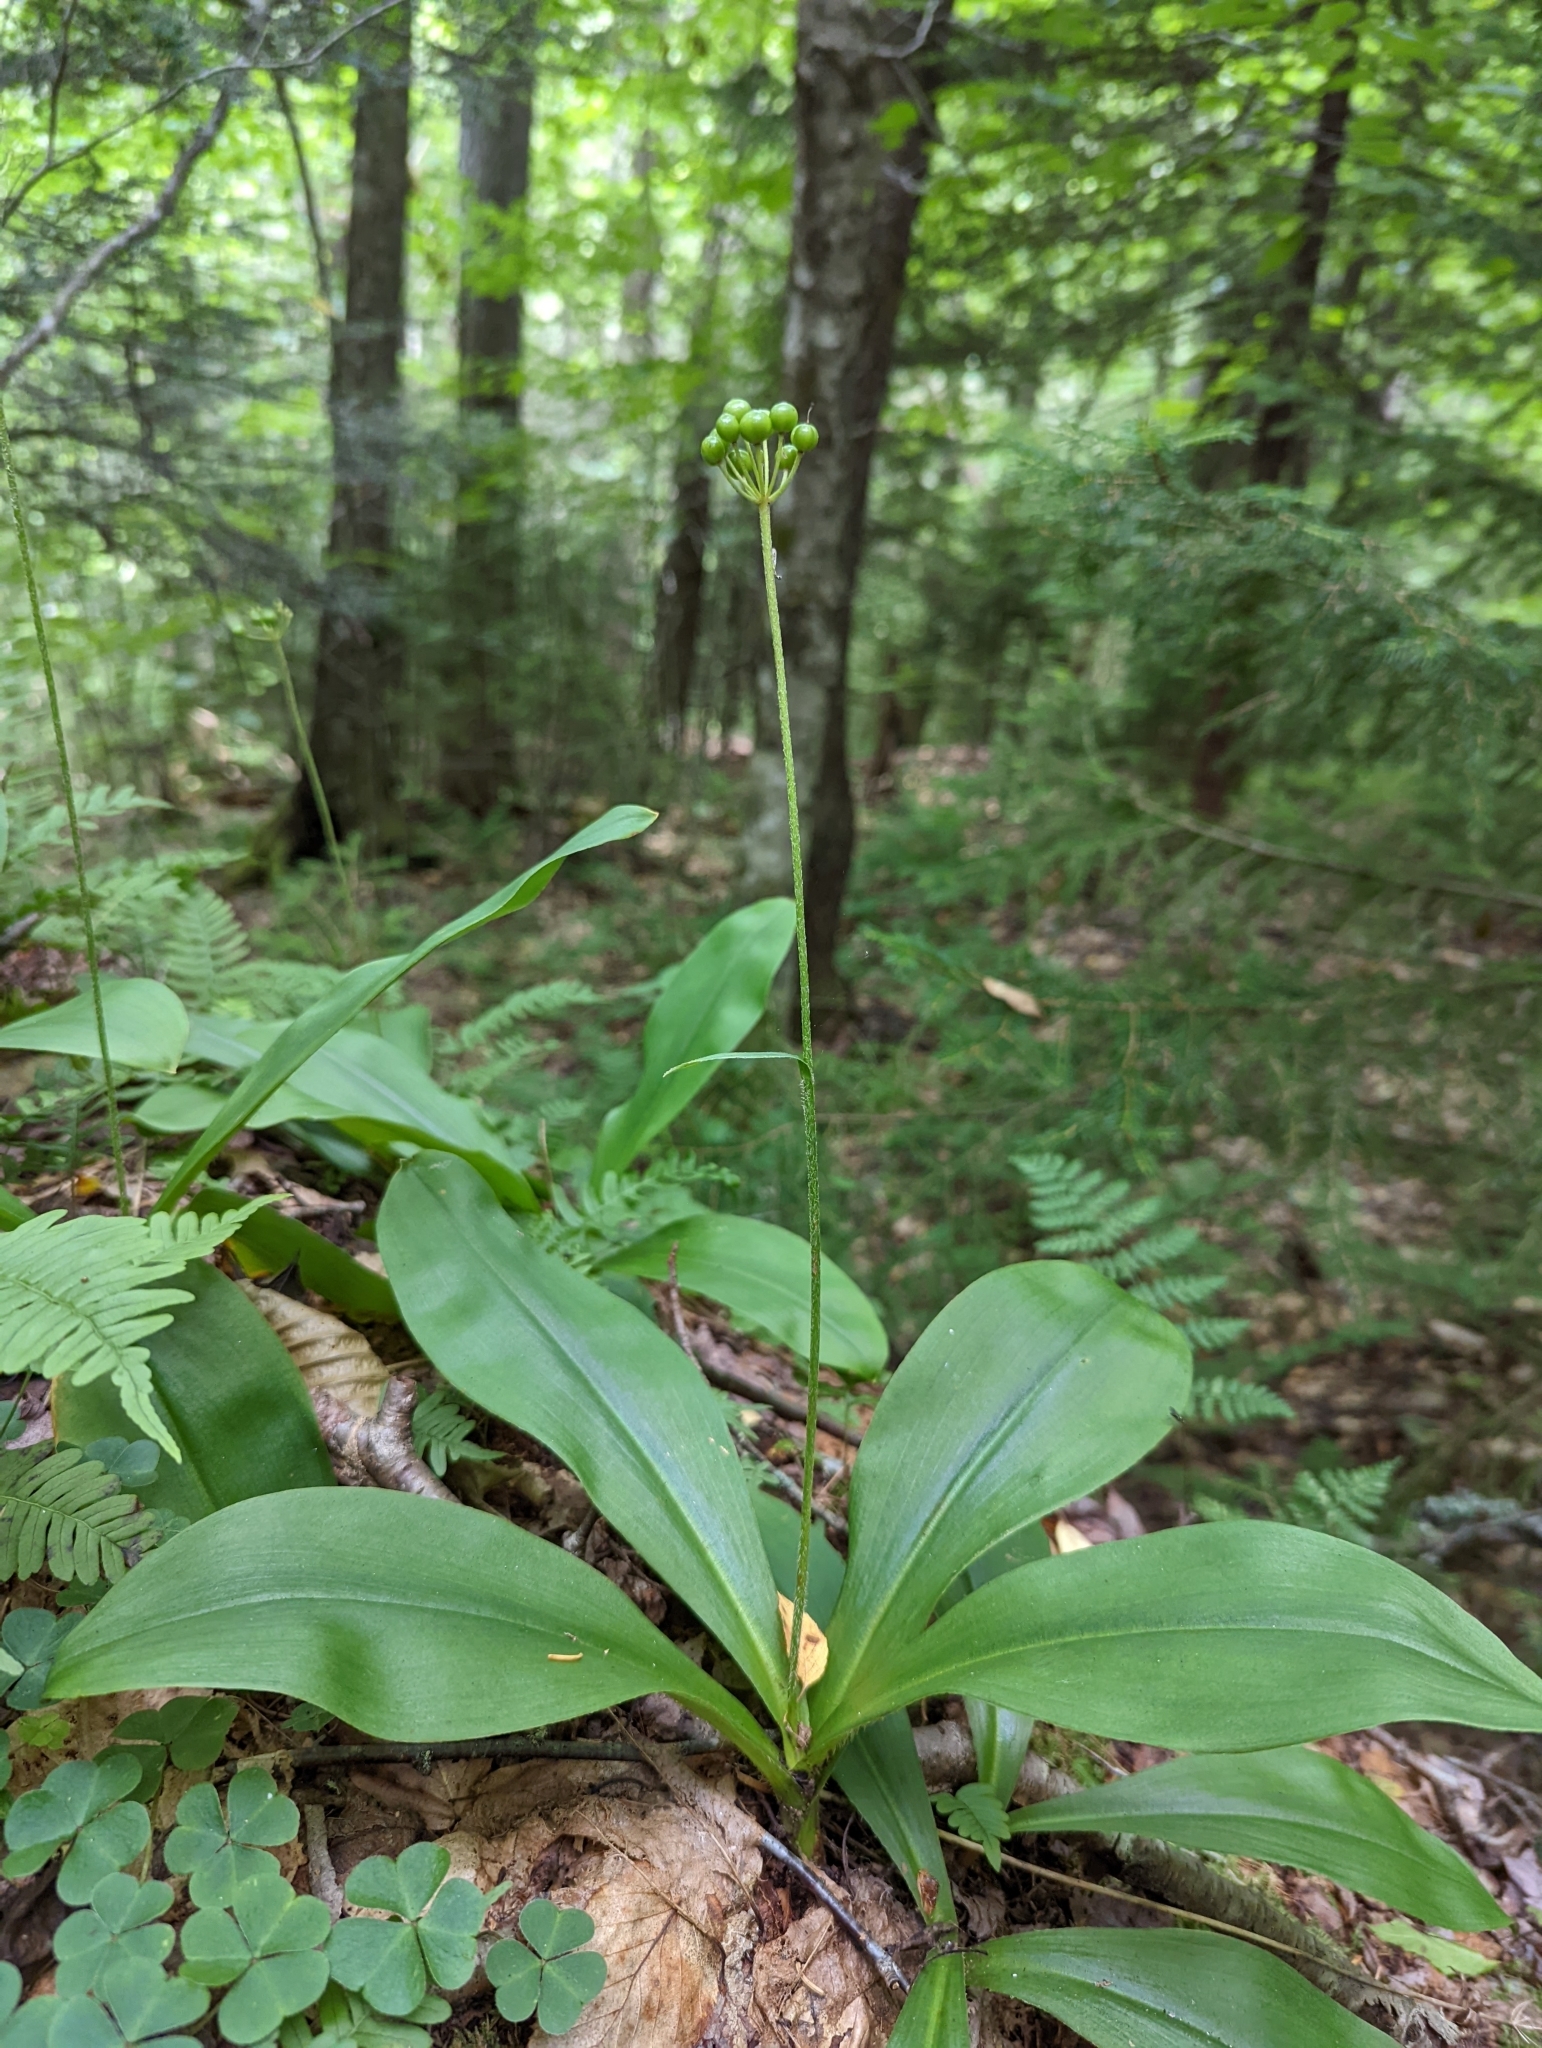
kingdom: Plantae
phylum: Tracheophyta
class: Liliopsida
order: Liliales
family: Liliaceae
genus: Clintonia
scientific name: Clintonia umbellulata
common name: Speckle wood-lily
